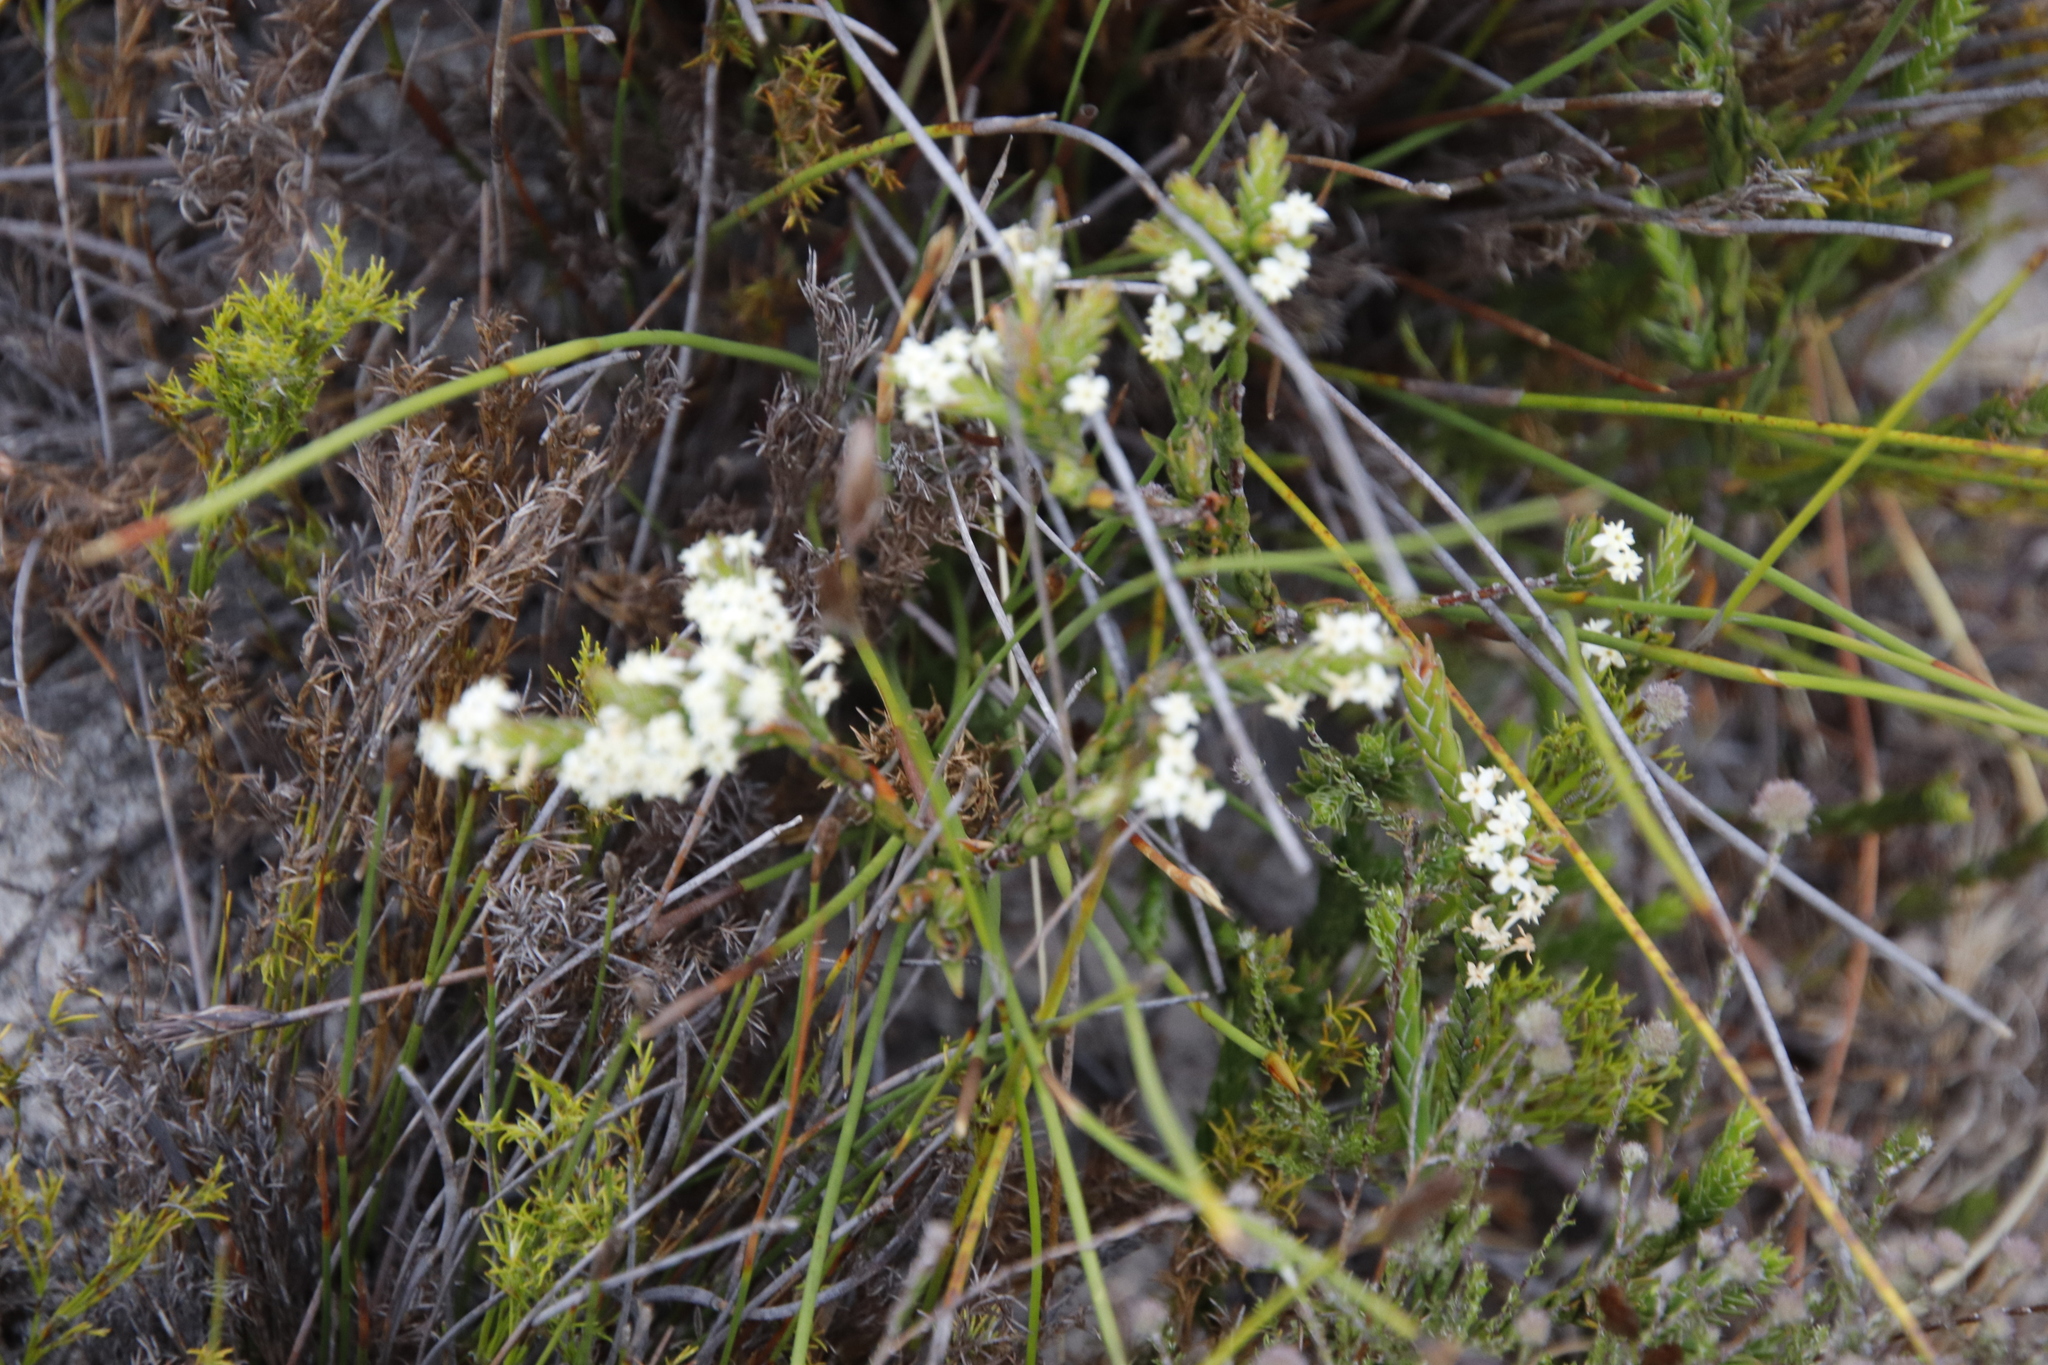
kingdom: Plantae
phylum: Tracheophyta
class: Magnoliopsida
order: Malvales
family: Thymelaeaceae
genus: Struthiola
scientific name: Struthiola ciliata
